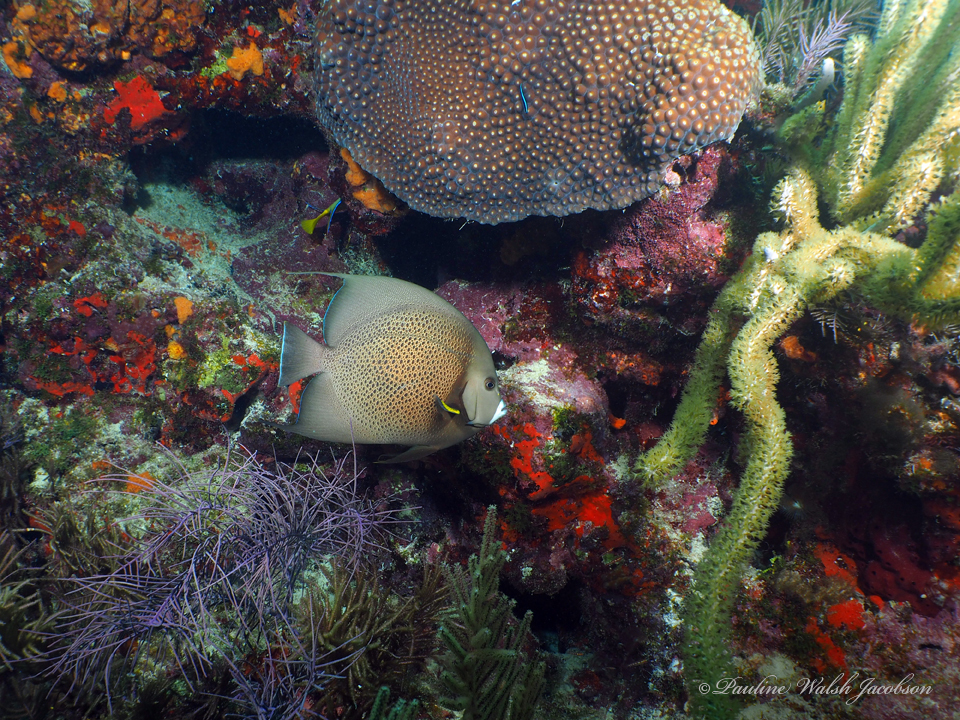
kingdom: Animalia
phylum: Chordata
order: Perciformes
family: Pomacanthidae
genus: Pomacanthus
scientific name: Pomacanthus arcuatus
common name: Gray angelfish
